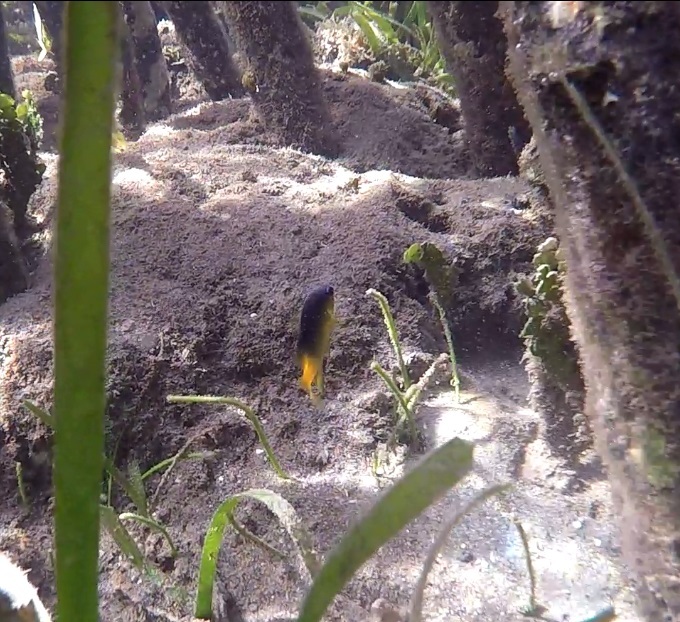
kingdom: Animalia
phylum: Chordata
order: Perciformes
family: Pomacentridae
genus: Stegastes
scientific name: Stegastes leucostictus
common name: Beaugregory
